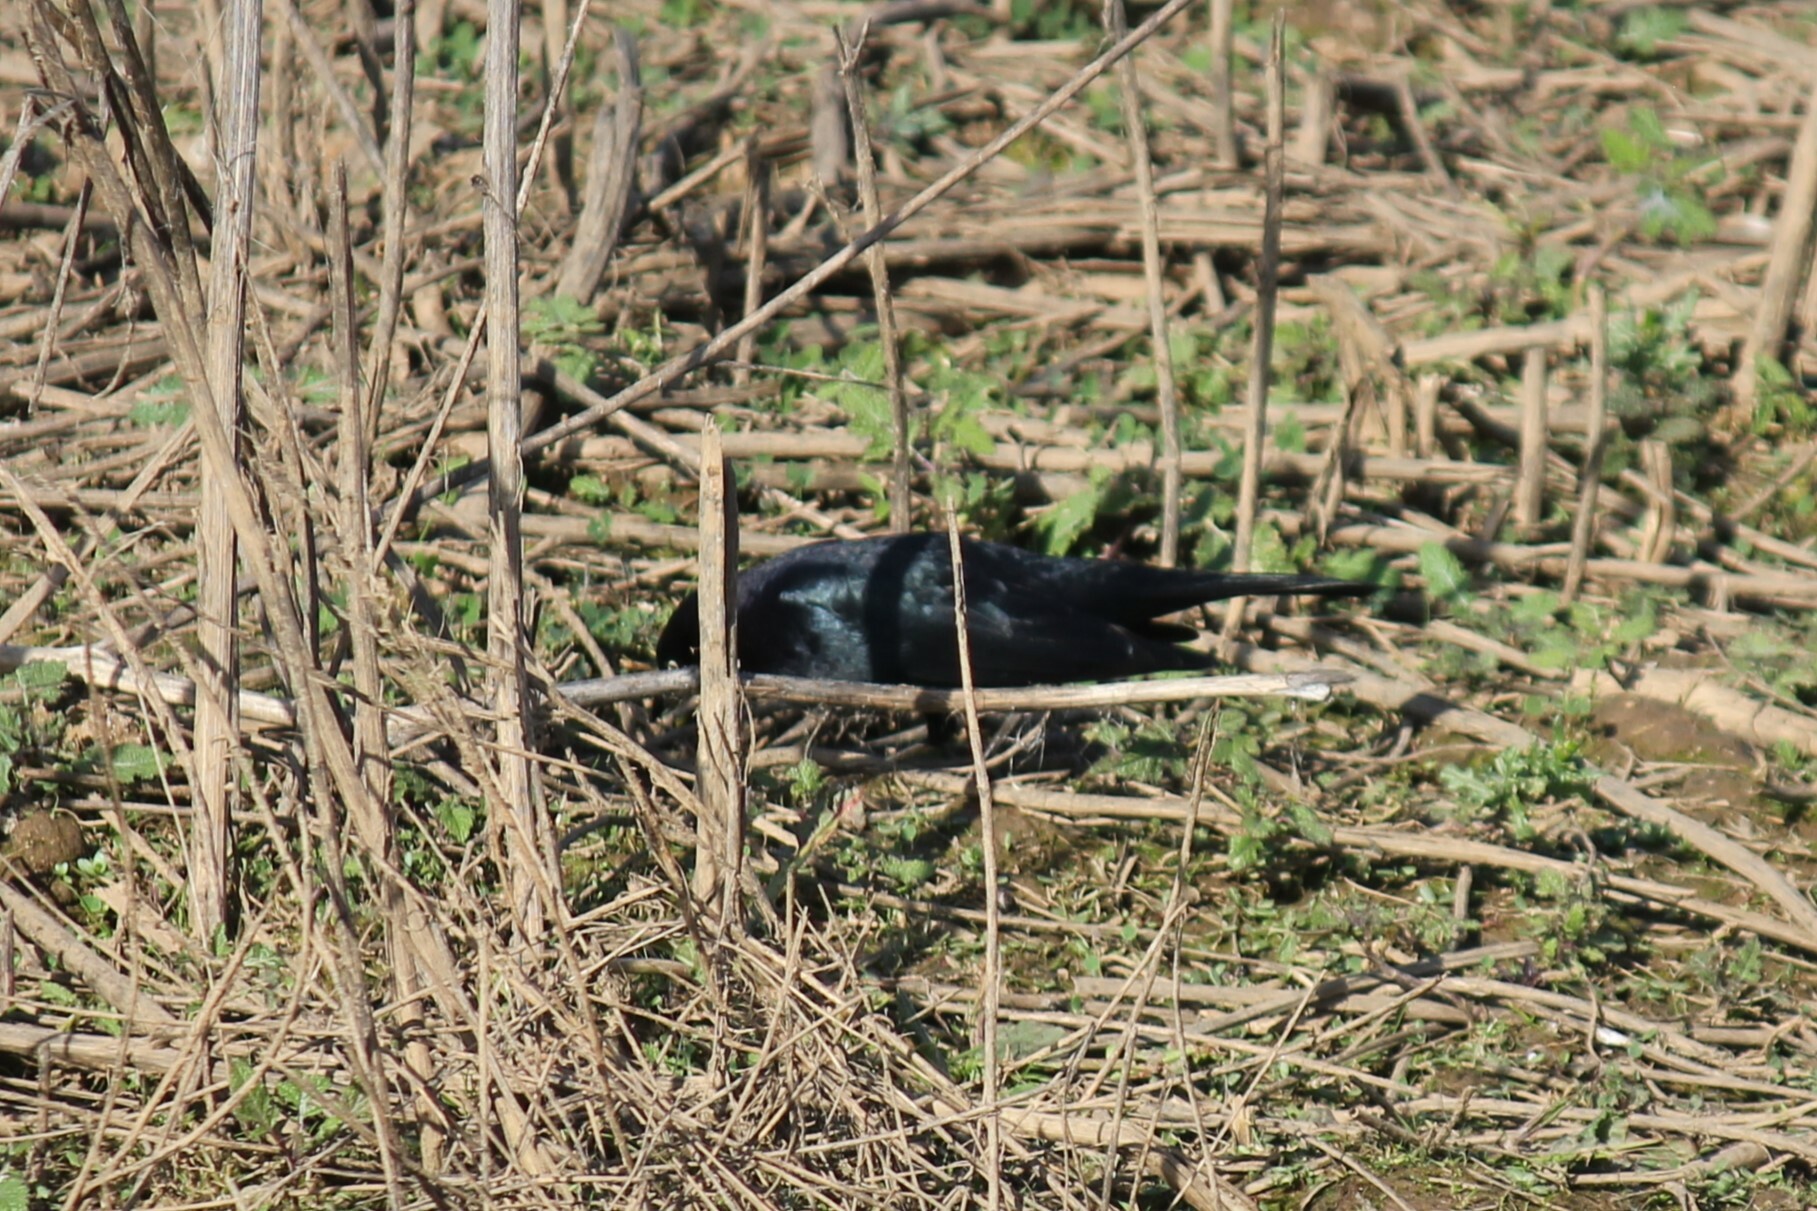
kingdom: Animalia
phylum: Chordata
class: Aves
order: Passeriformes
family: Icteridae
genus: Euphagus
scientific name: Euphagus cyanocephalus
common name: Brewer's blackbird
